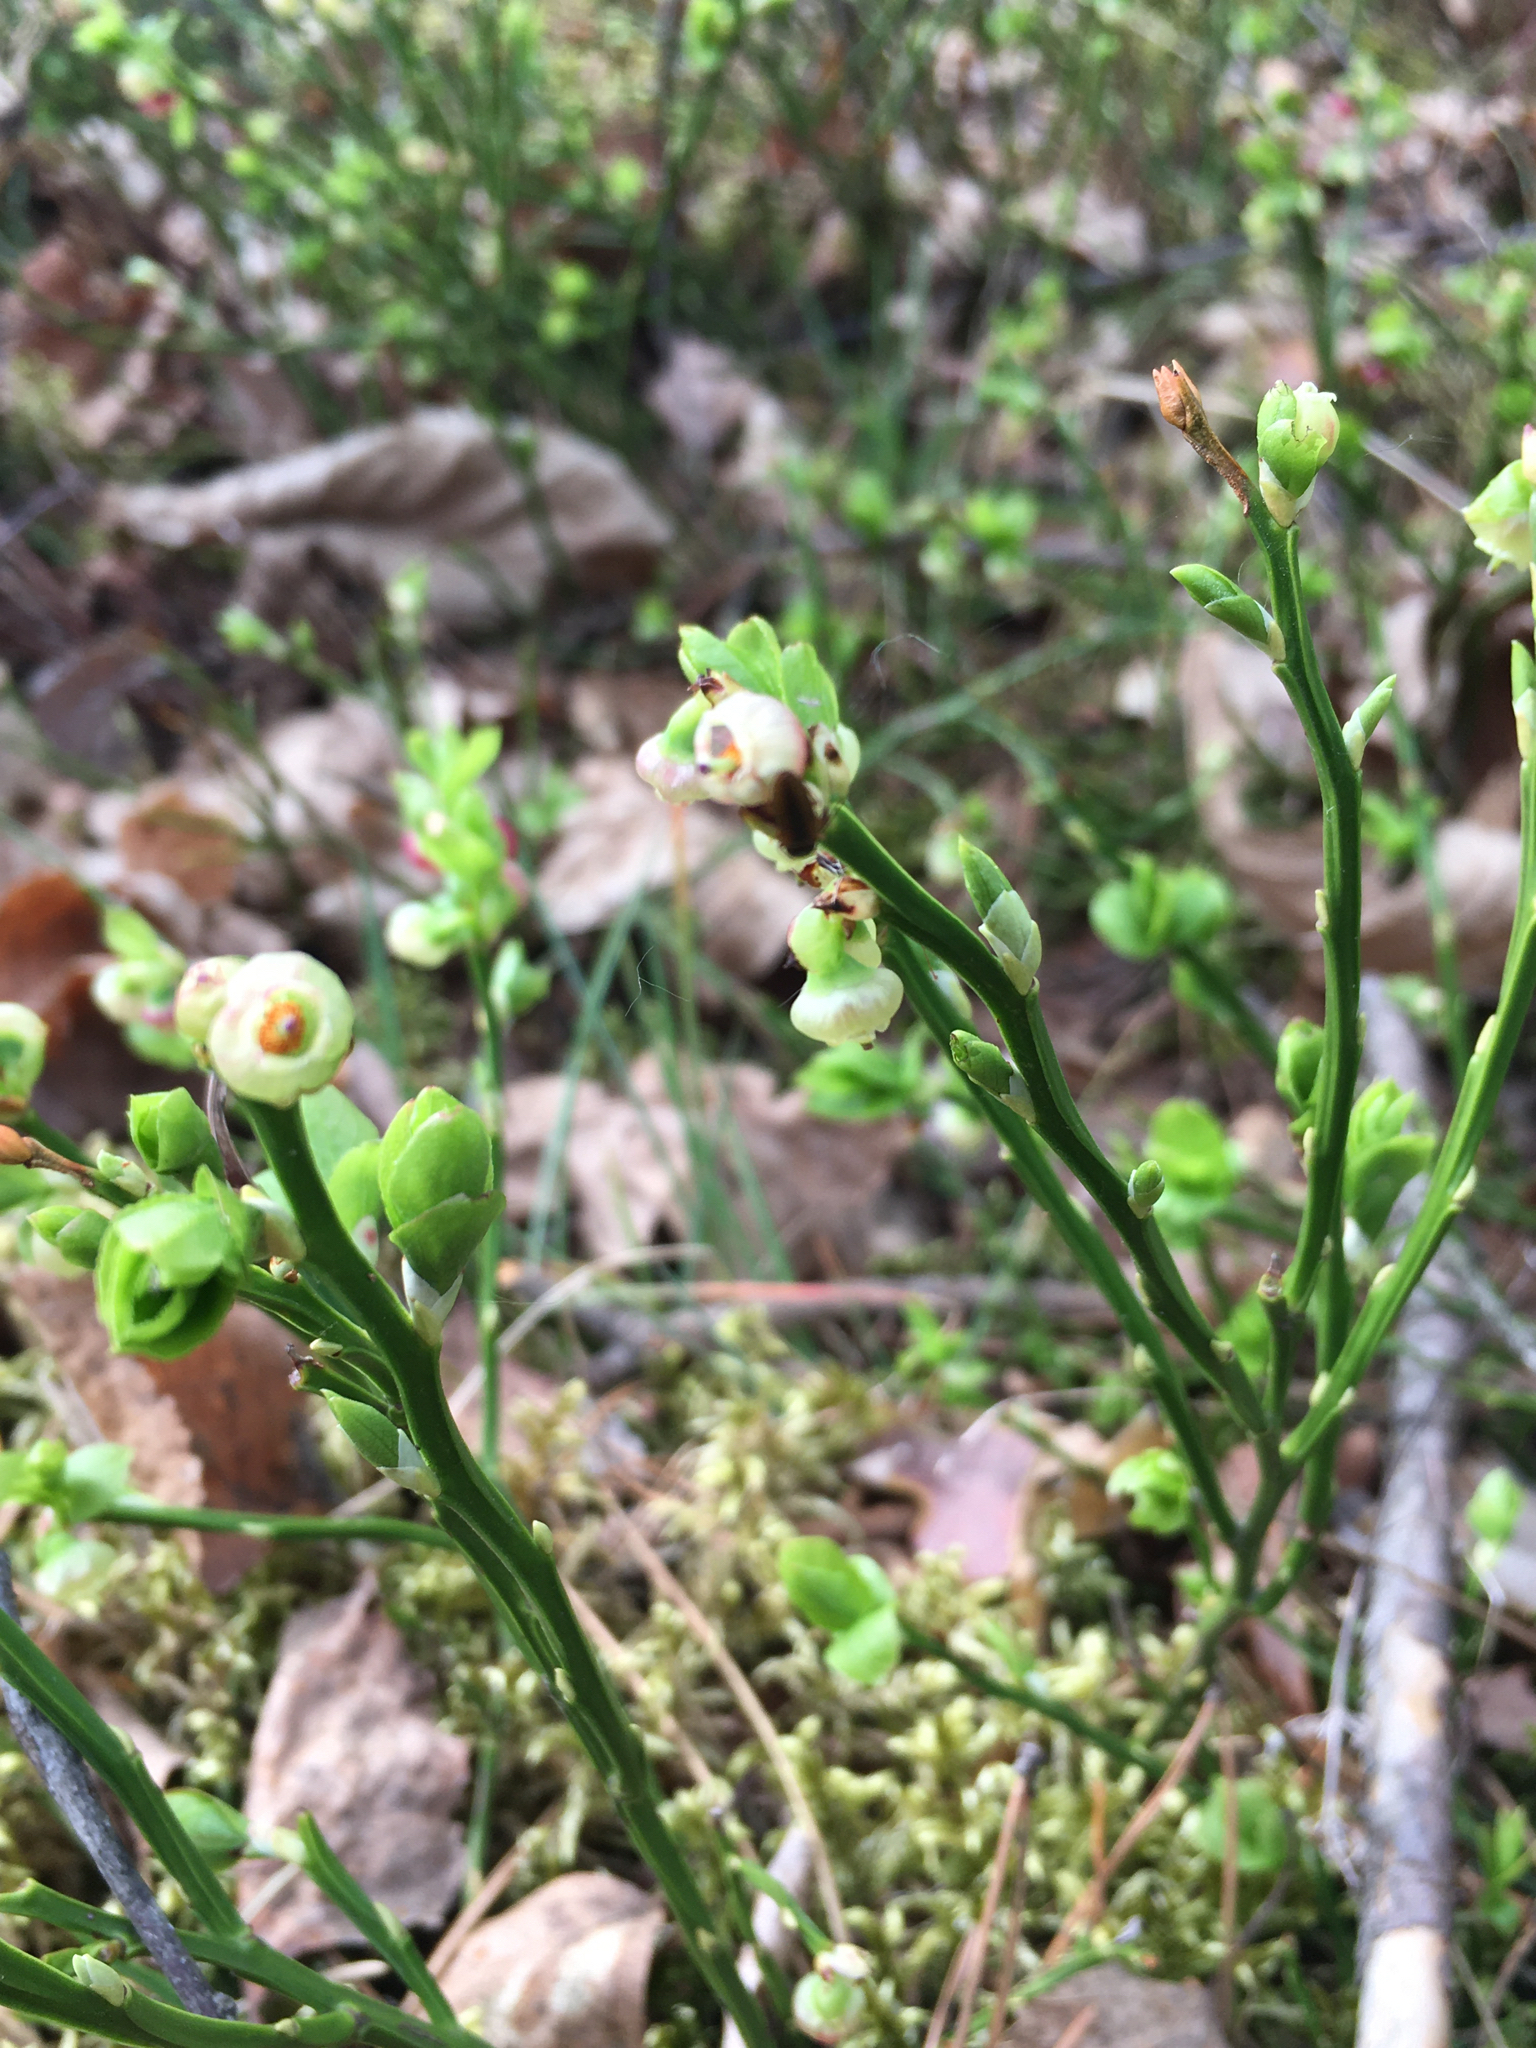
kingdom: Plantae
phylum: Tracheophyta
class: Magnoliopsida
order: Ericales
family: Ericaceae
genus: Vaccinium
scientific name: Vaccinium myrtillus
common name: Bilberry
